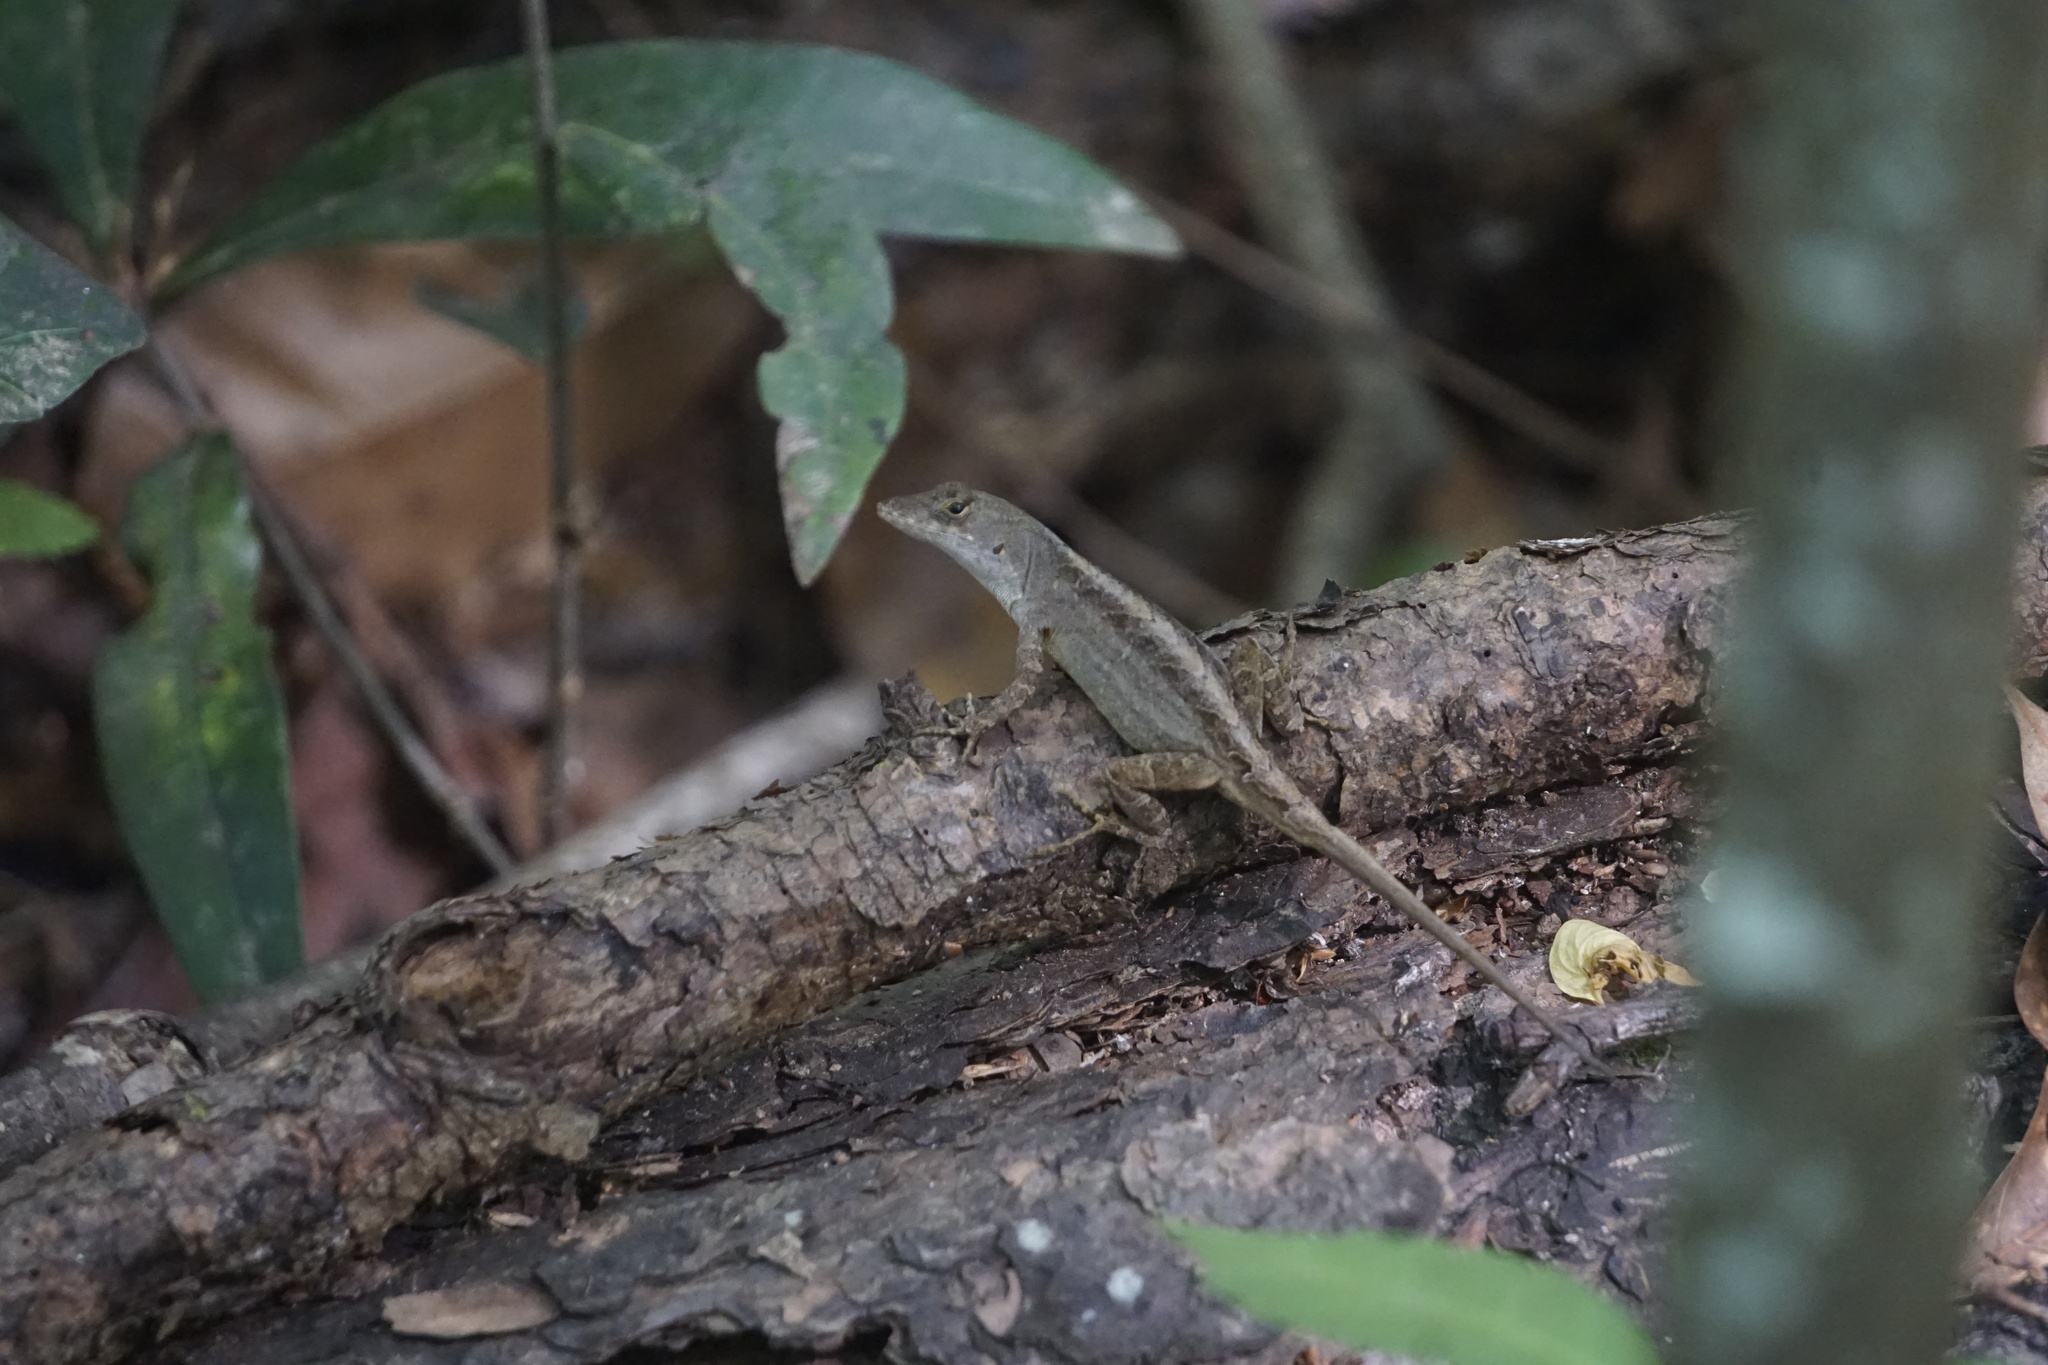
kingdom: Animalia
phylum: Chordata
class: Squamata
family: Dactyloidae
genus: Anolis
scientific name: Anolis sagrei
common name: Brown anole
